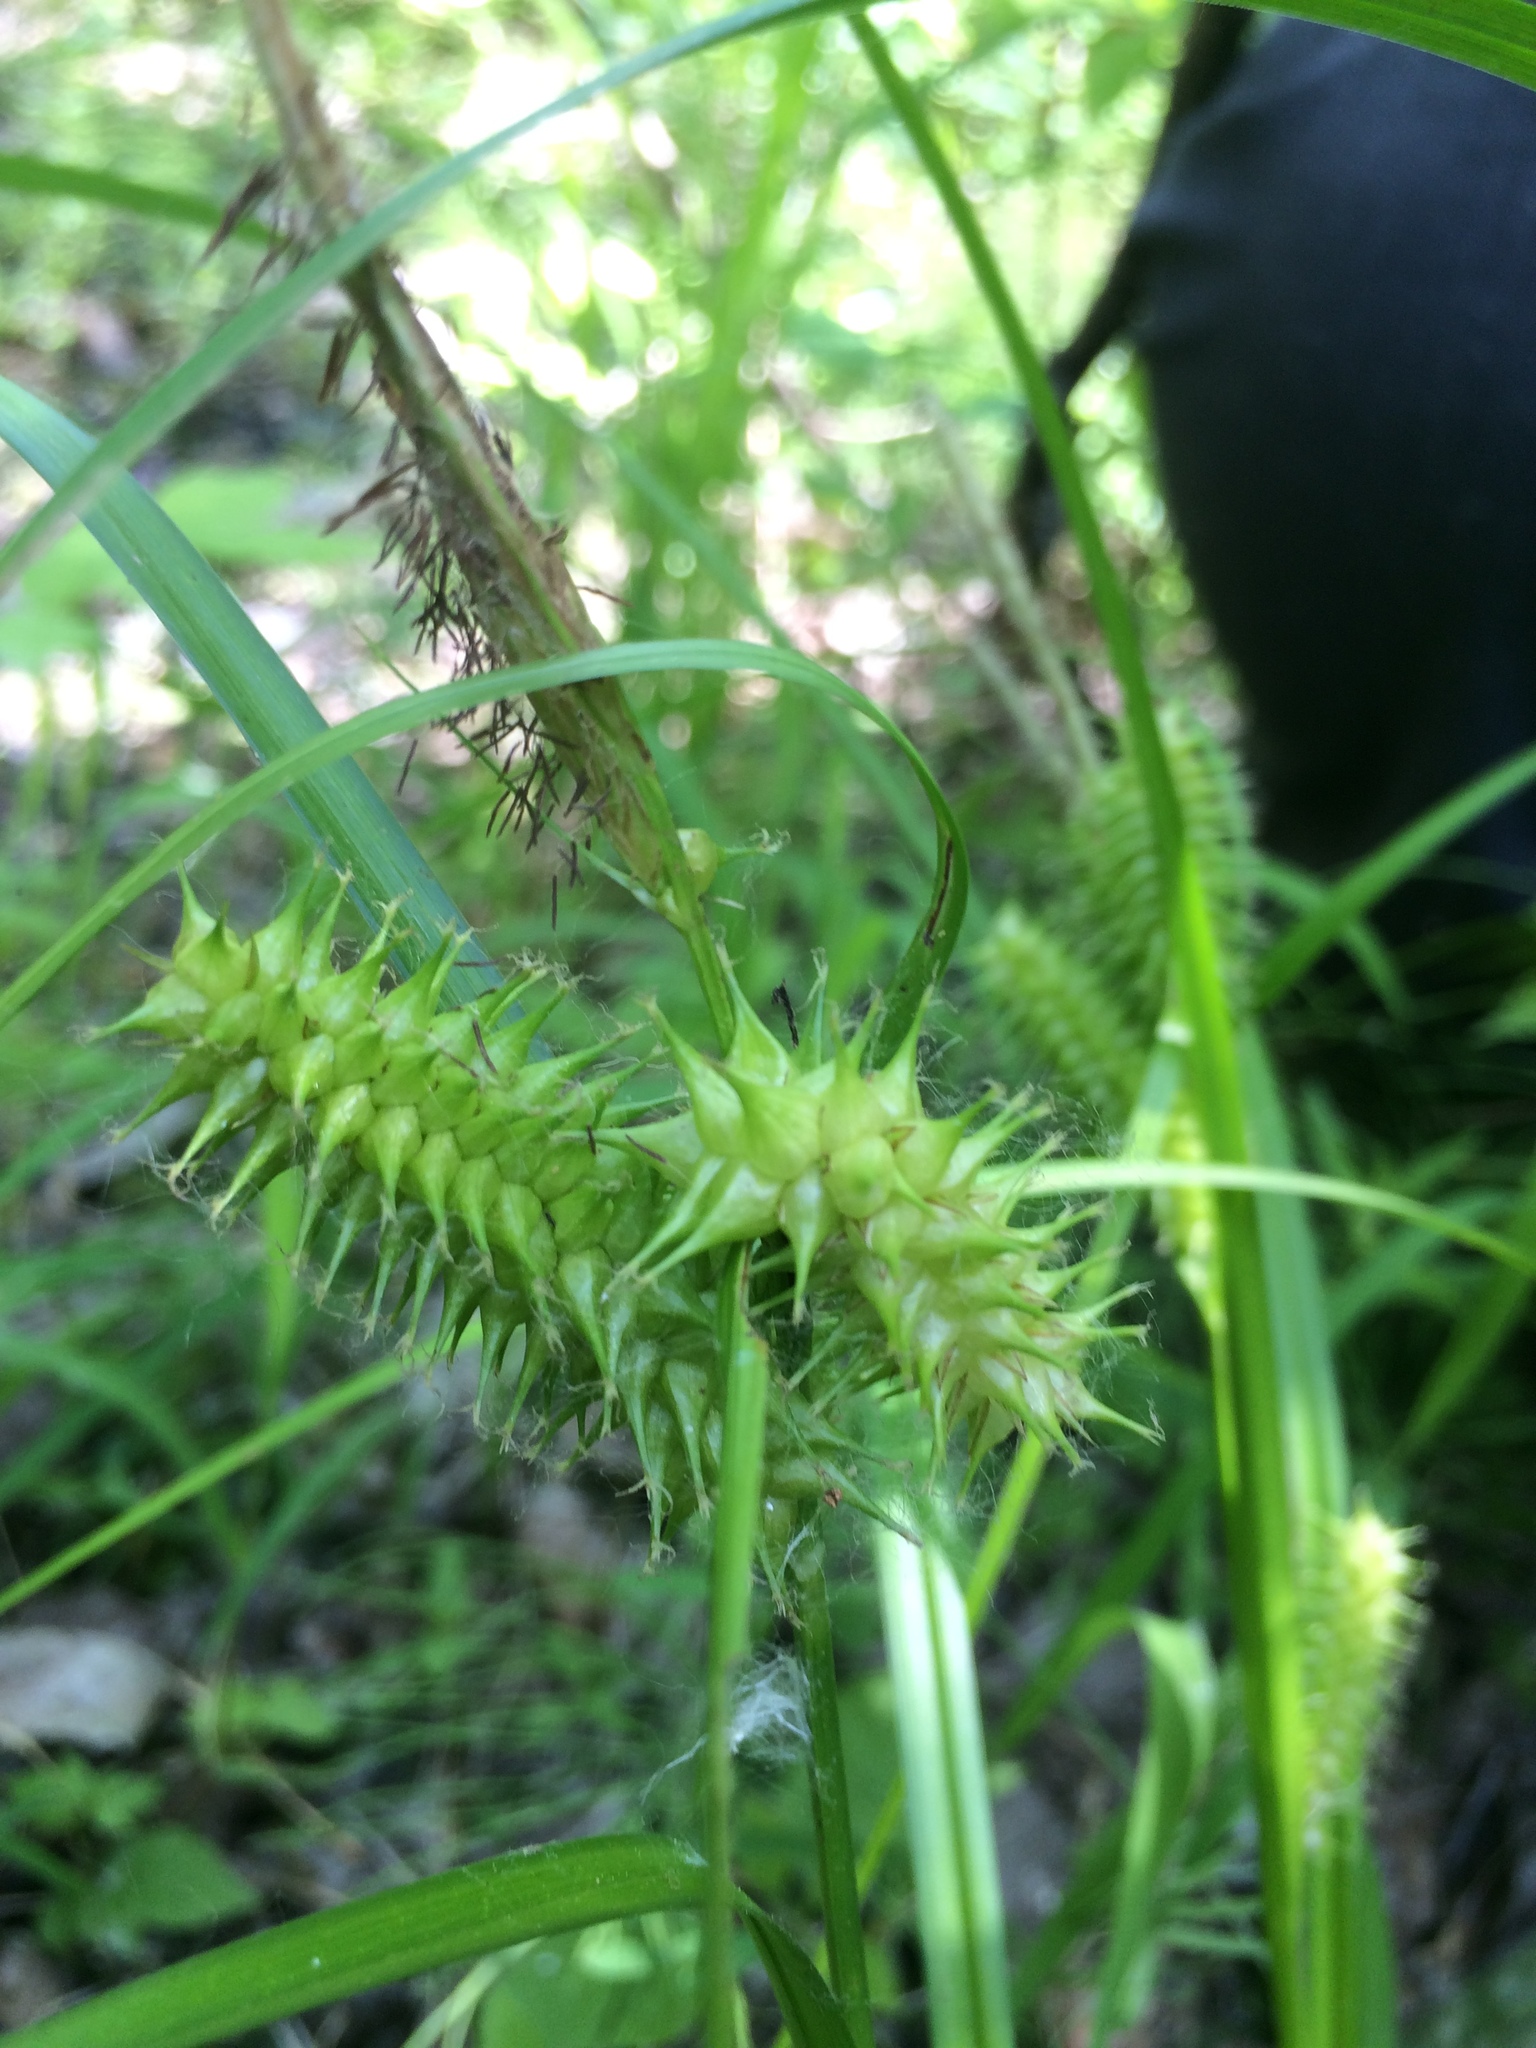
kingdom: Plantae
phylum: Tracheophyta
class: Liliopsida
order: Poales
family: Cyperaceae
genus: Carex
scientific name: Carex retrorsa
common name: Knot-sheath sedge
